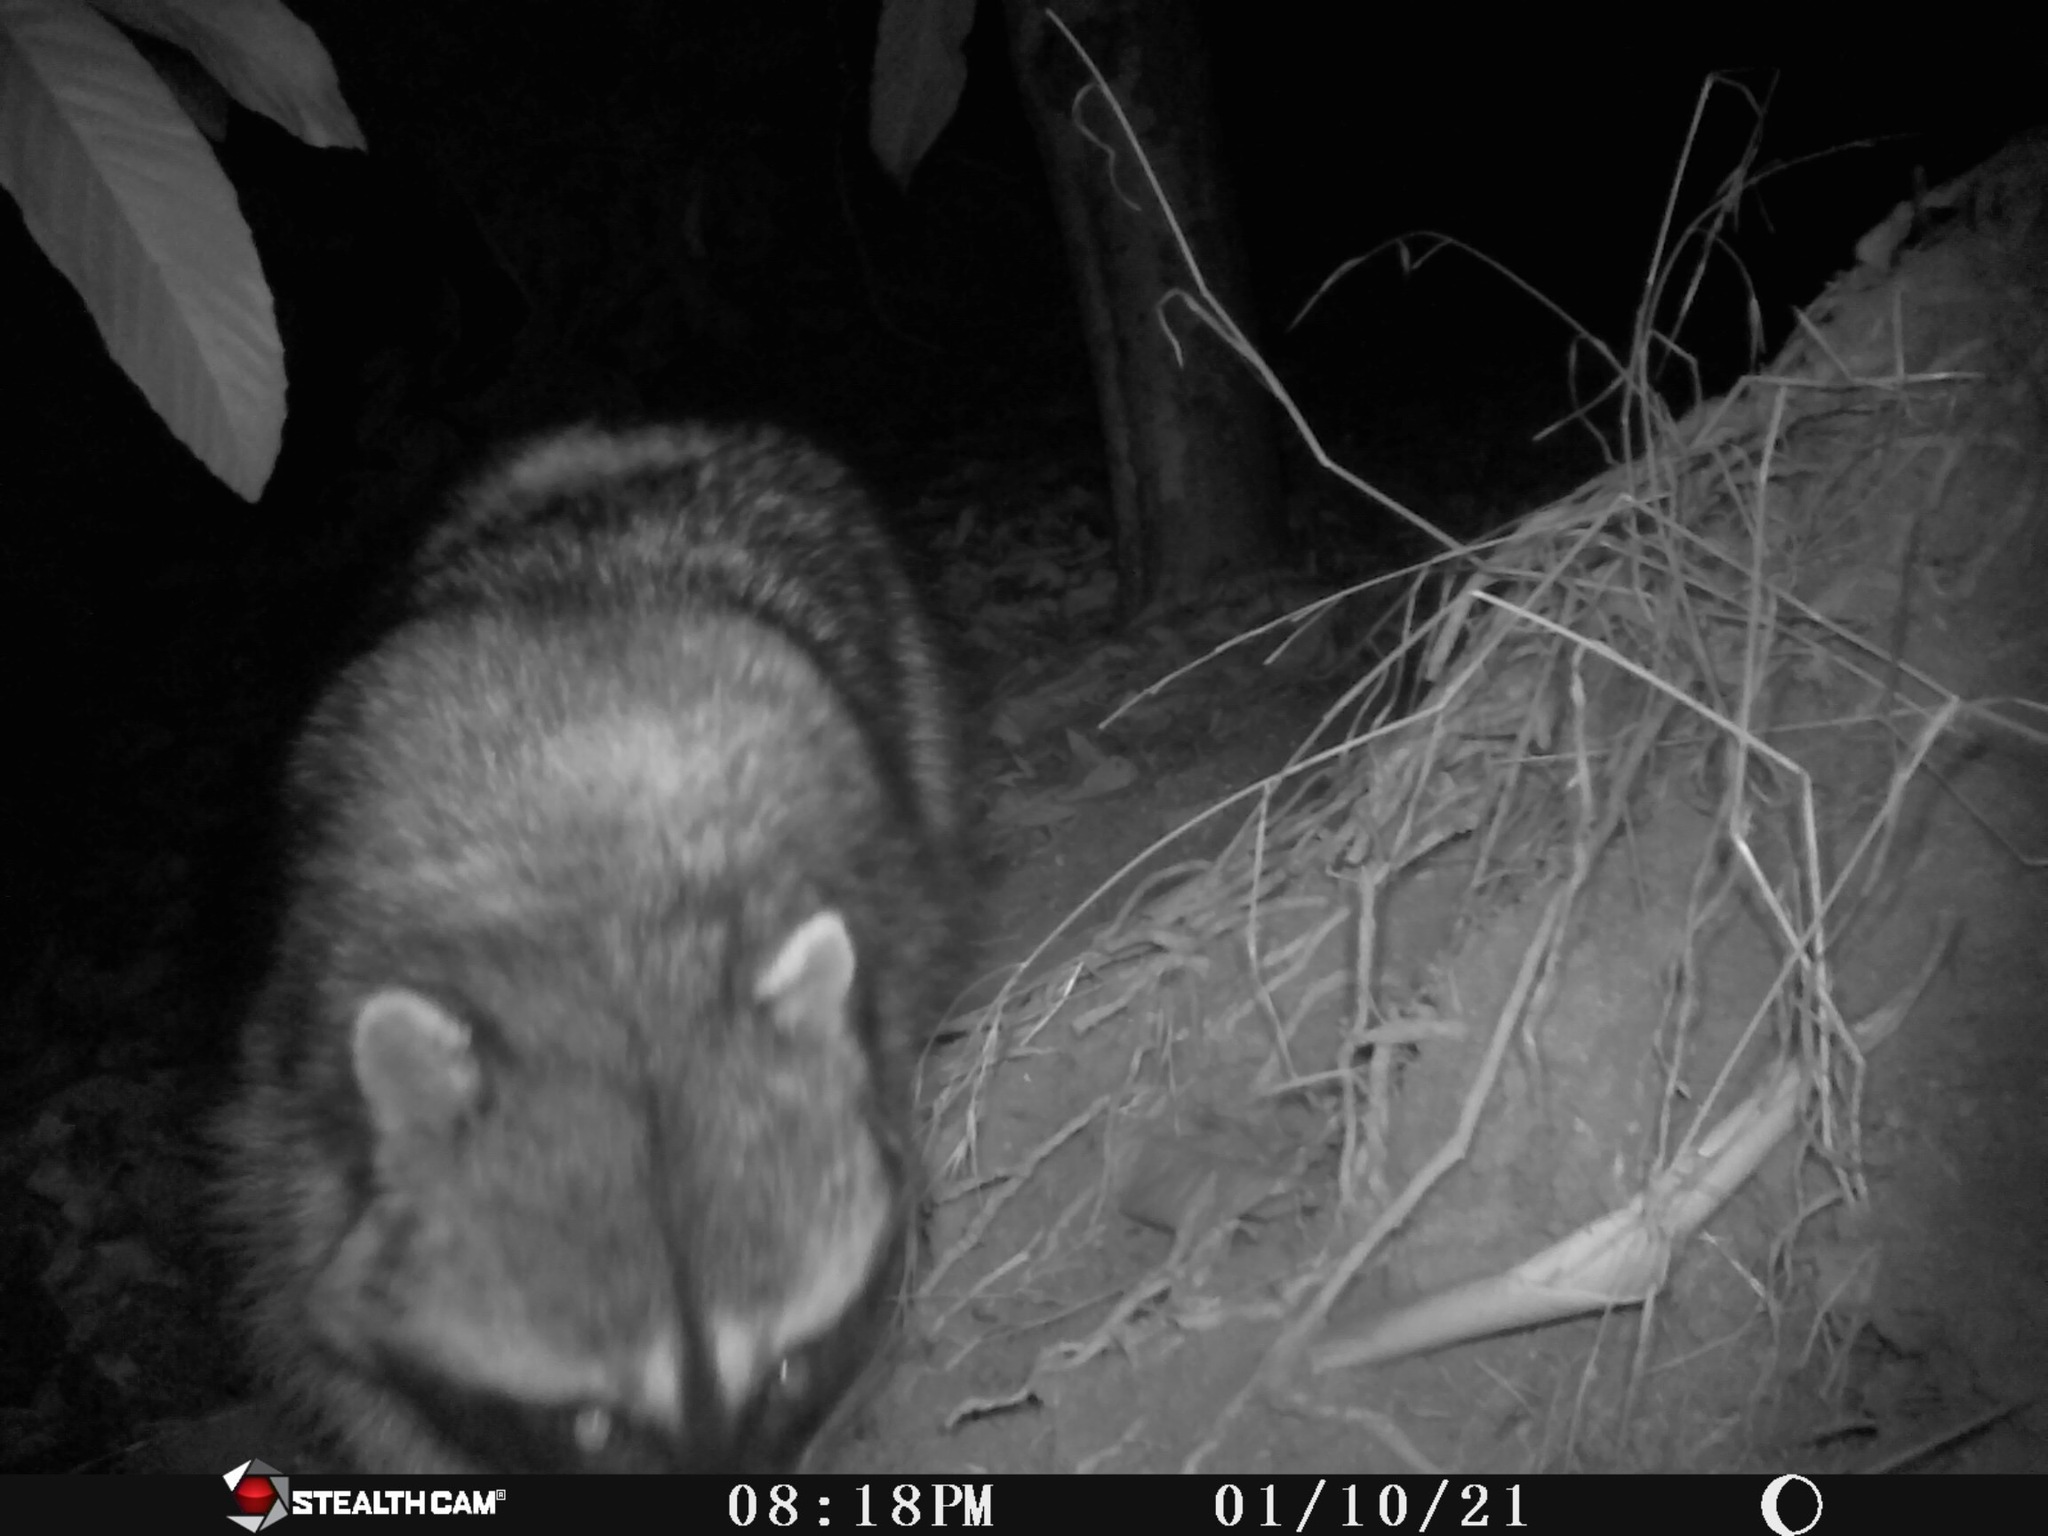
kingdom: Animalia
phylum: Chordata
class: Mammalia
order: Carnivora
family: Procyonidae
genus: Procyon
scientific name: Procyon lotor
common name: Raccoon
